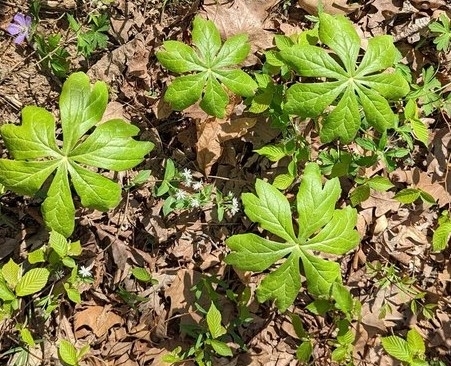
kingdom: Plantae
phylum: Tracheophyta
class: Magnoliopsida
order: Ranunculales
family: Berberidaceae
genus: Podophyllum
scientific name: Podophyllum peltatum
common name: Wild mandrake
